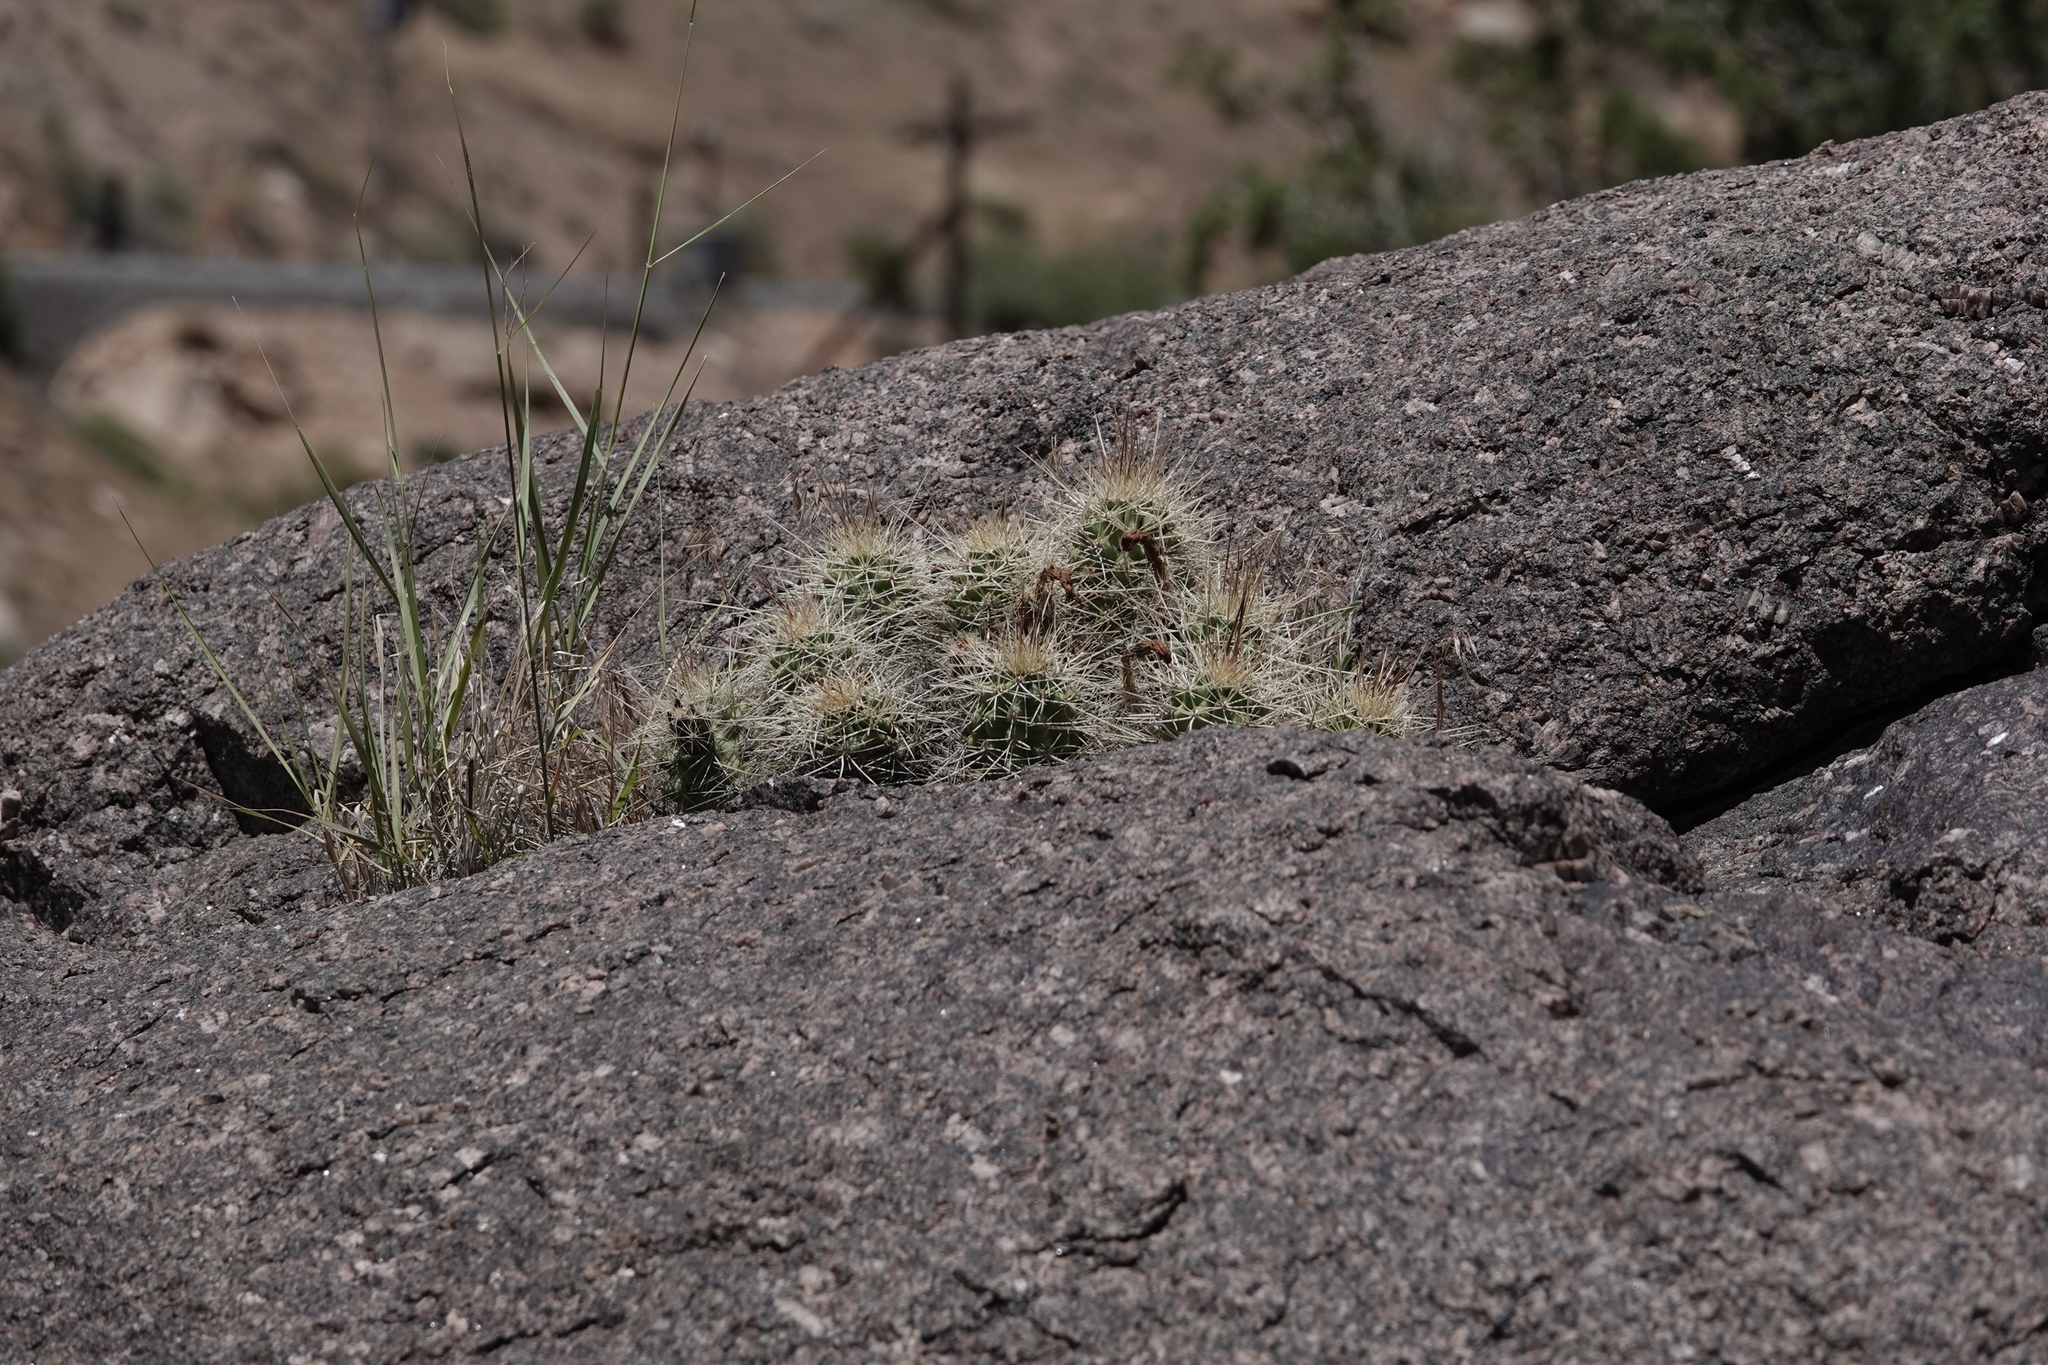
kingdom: Plantae
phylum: Tracheophyta
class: Magnoliopsida
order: Caryophyllales
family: Cactaceae
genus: Echinocereus
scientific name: Echinocereus triglochidiatus
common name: Claretcup hedgehog
